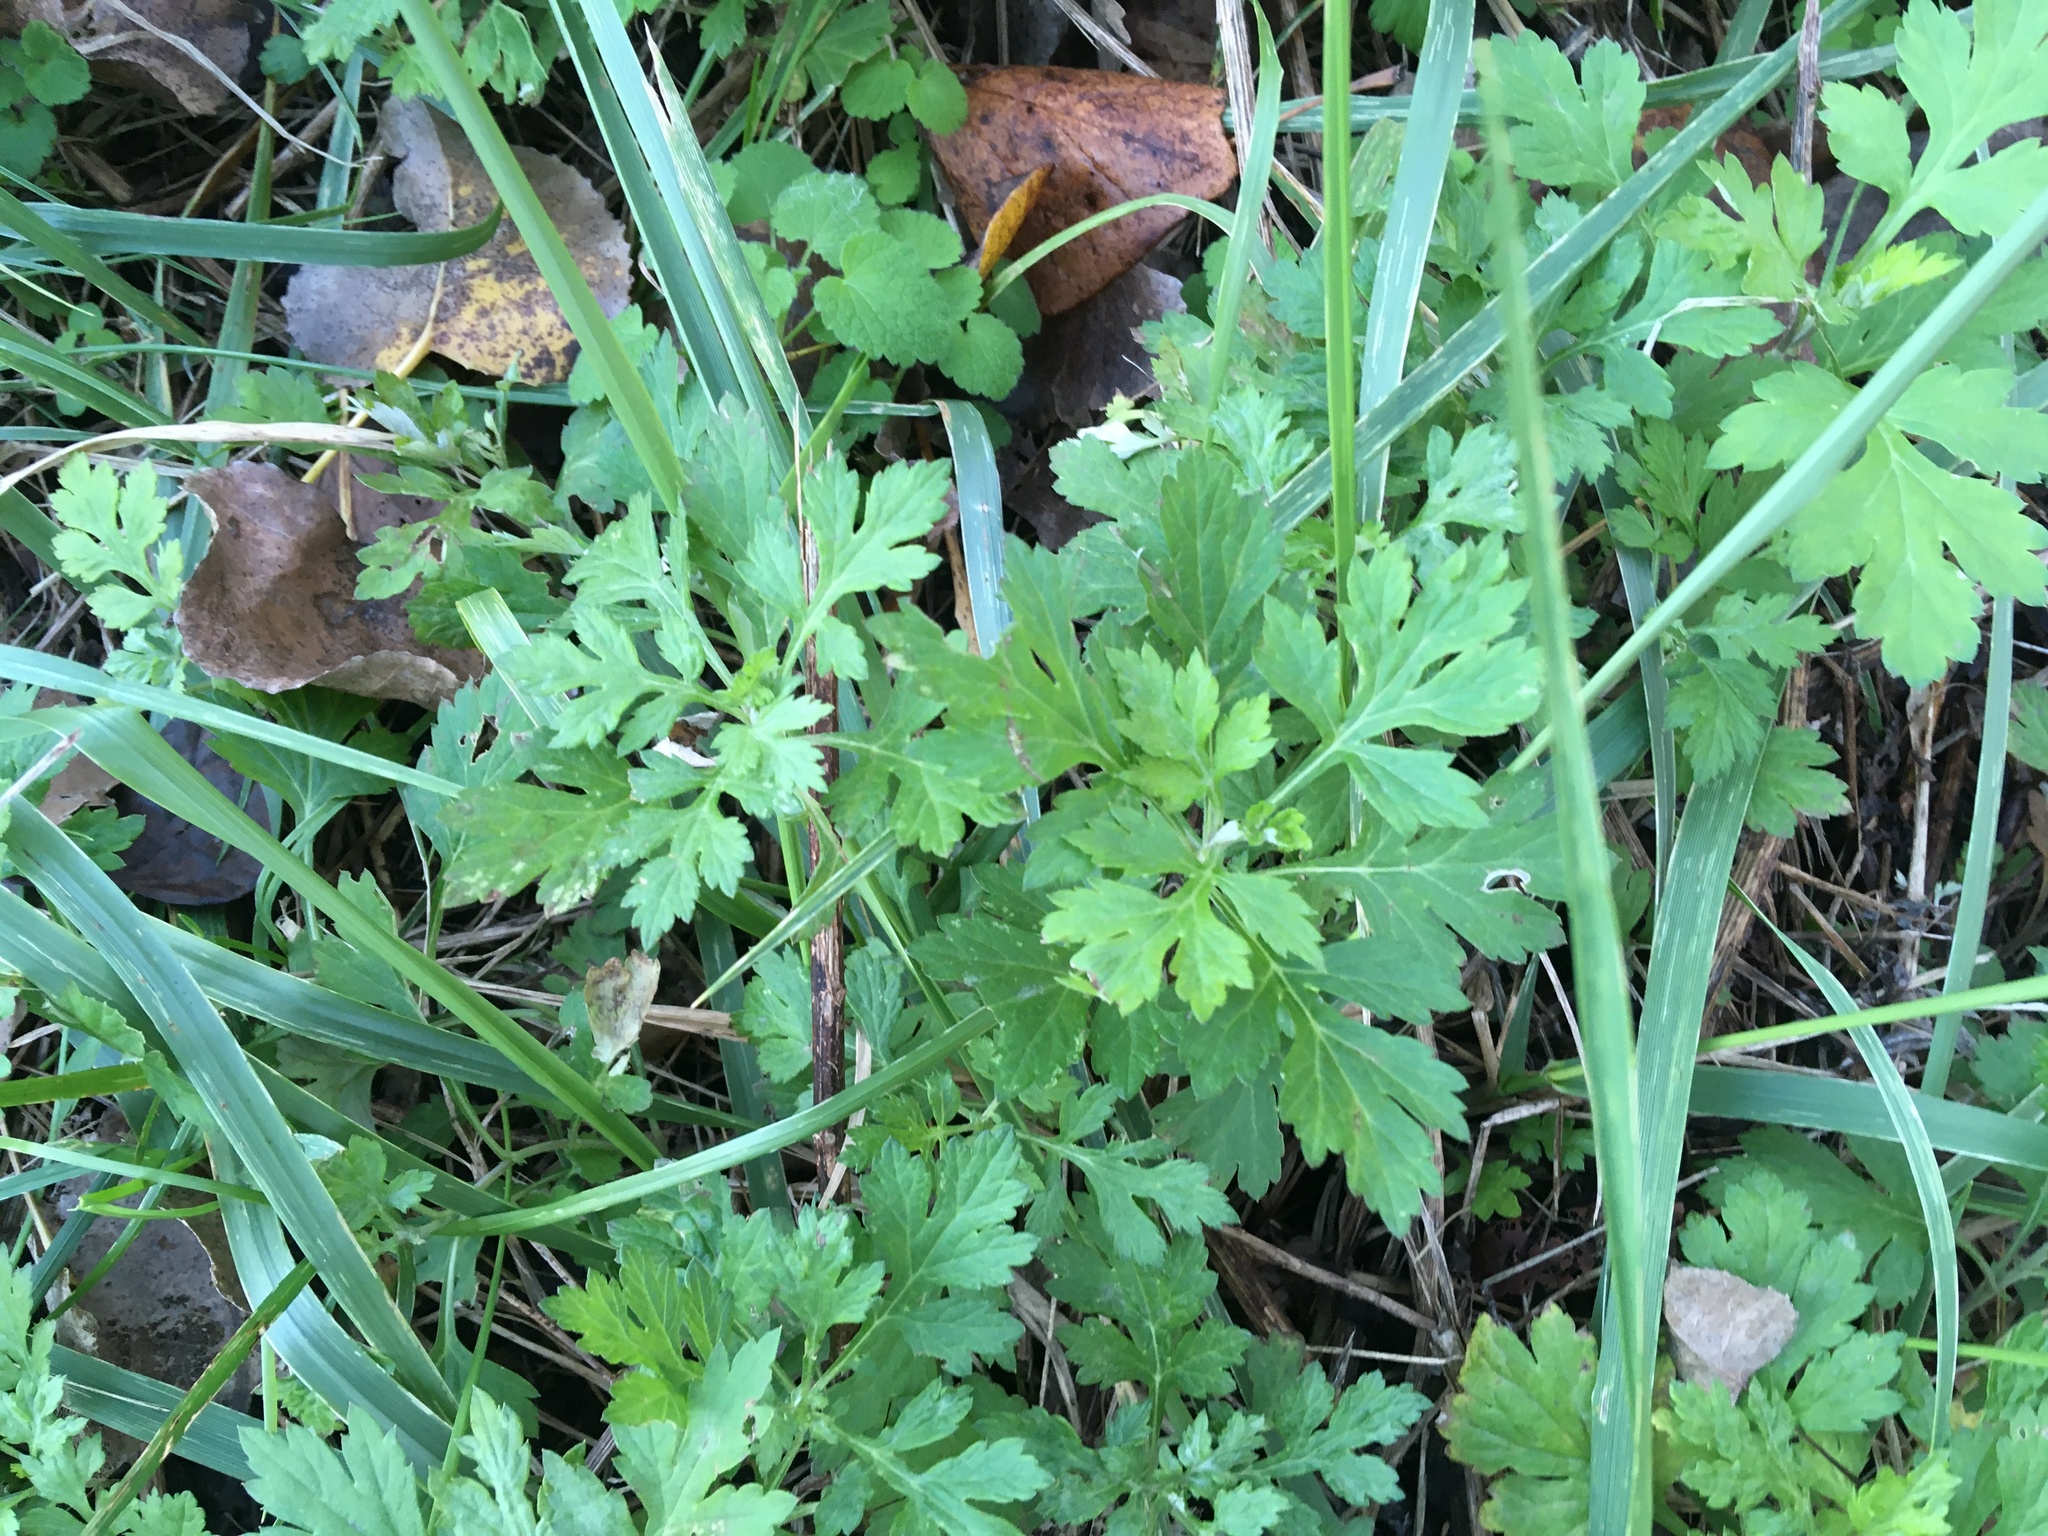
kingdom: Plantae
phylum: Tracheophyta
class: Magnoliopsida
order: Asterales
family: Asteraceae
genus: Artemisia
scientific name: Artemisia vulgaris
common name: Mugwort
